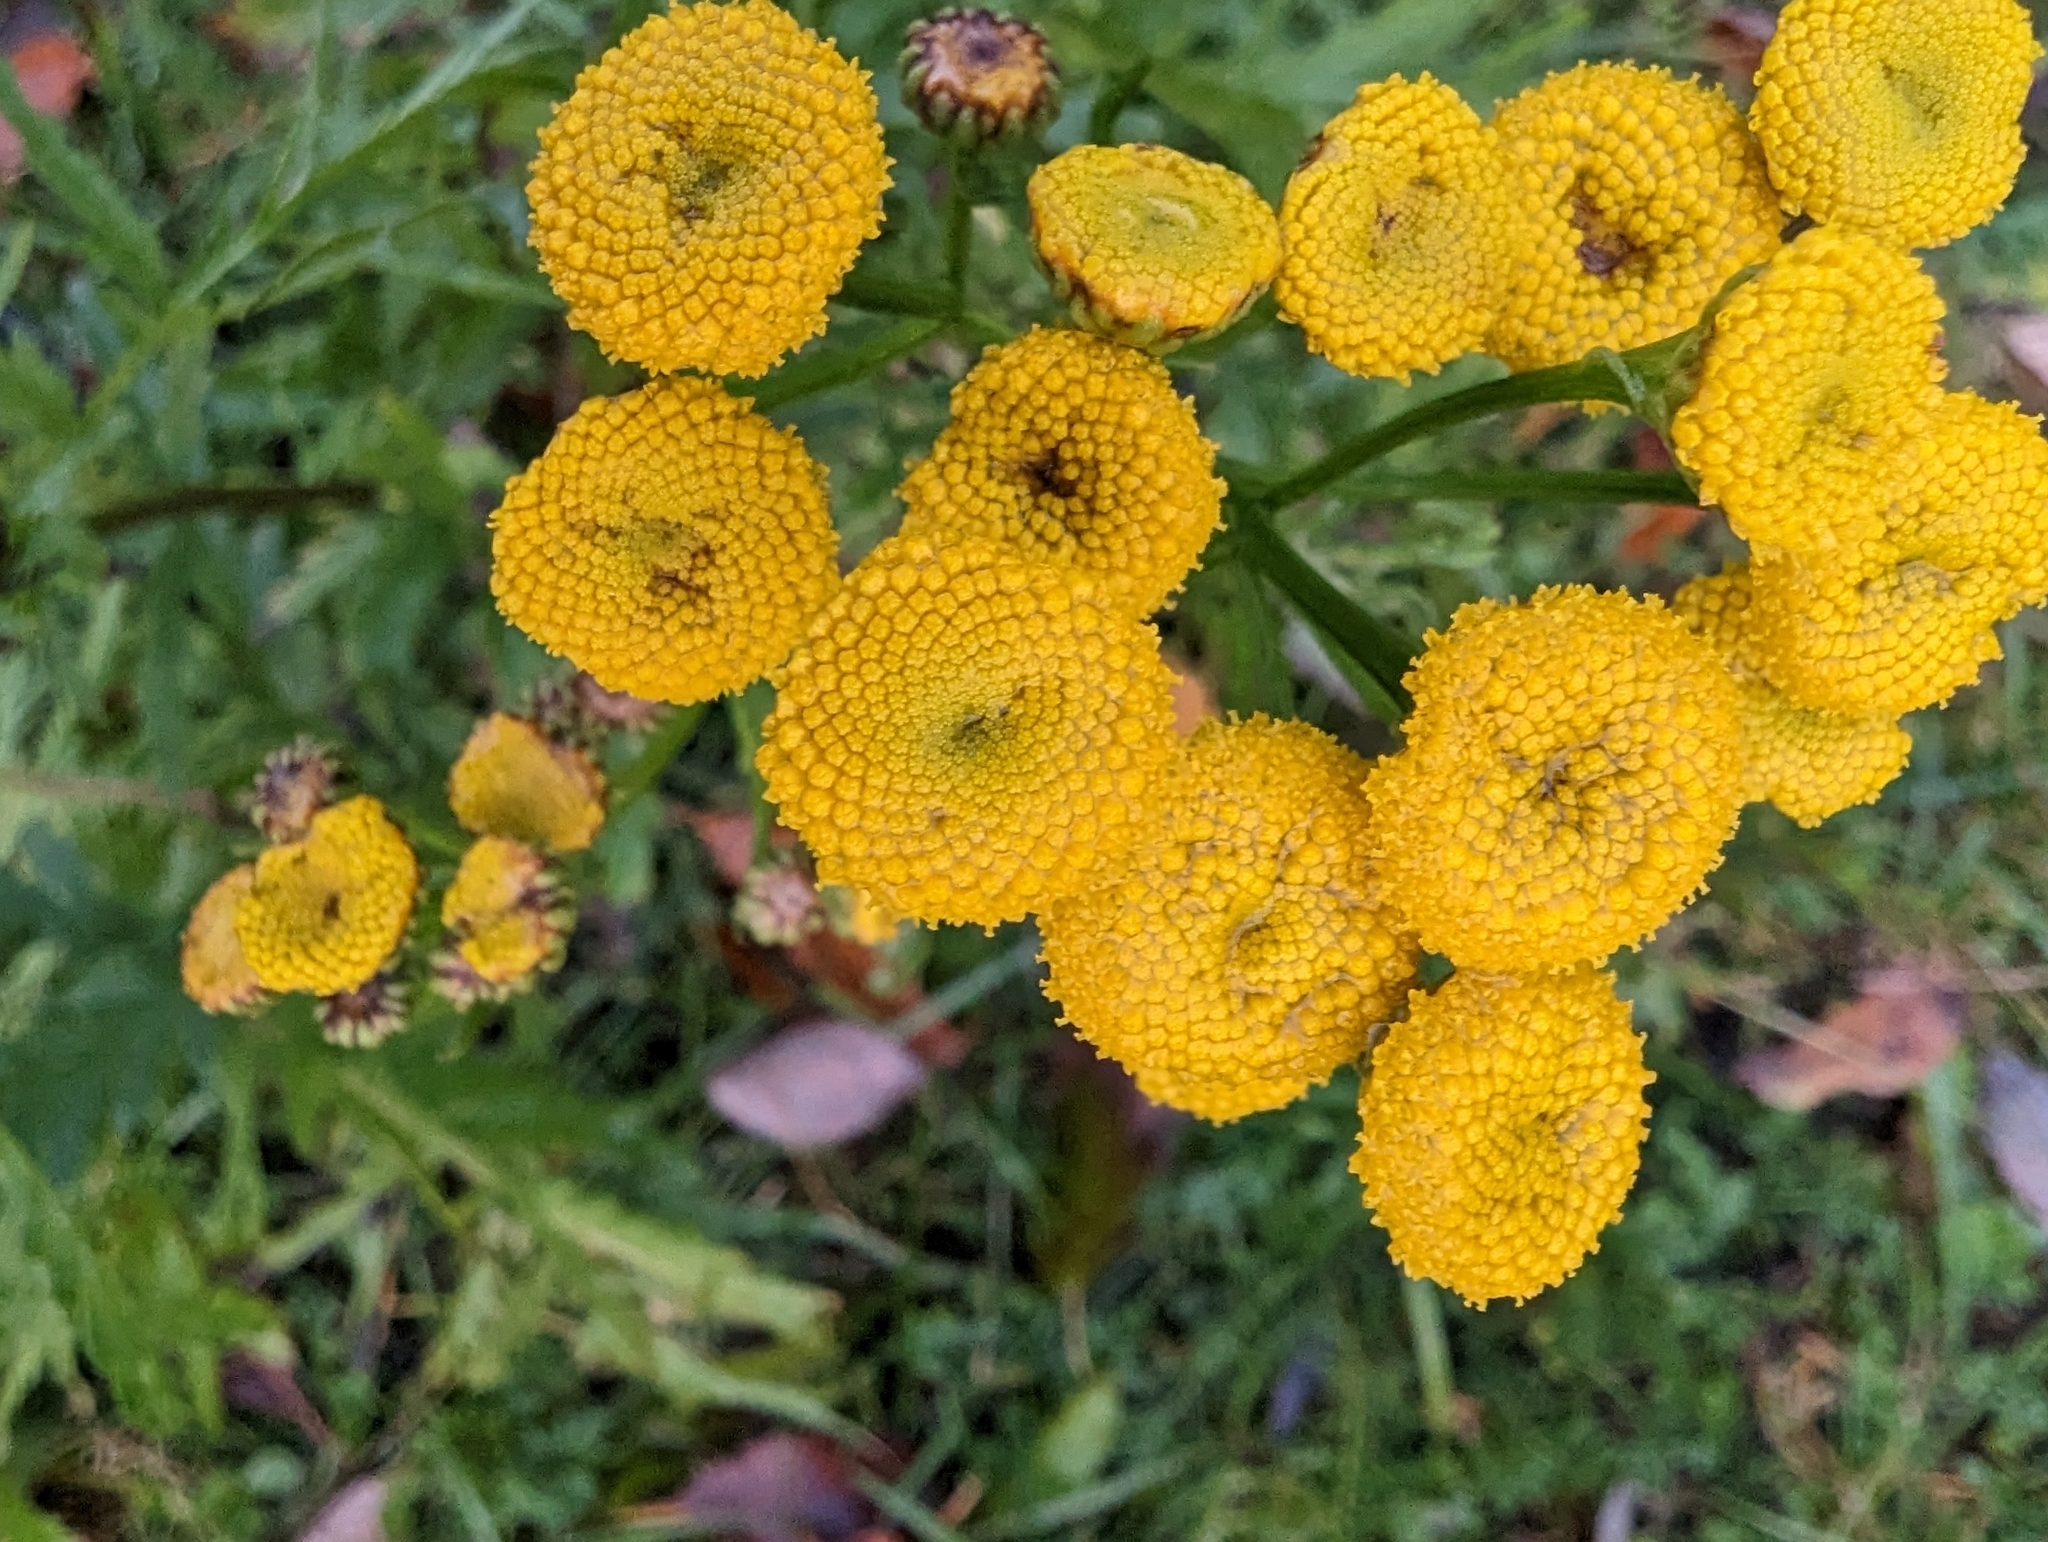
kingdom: Plantae
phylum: Tracheophyta
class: Magnoliopsida
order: Asterales
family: Asteraceae
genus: Tanacetum
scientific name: Tanacetum vulgare
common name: Common tansy
